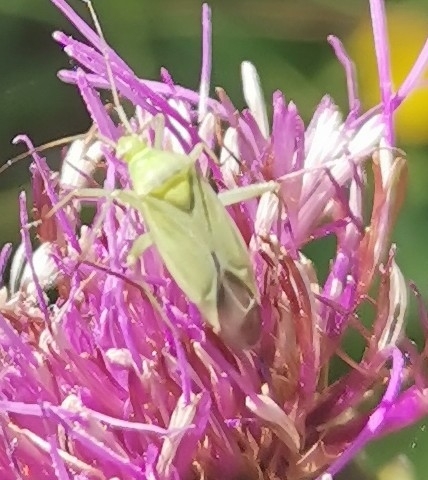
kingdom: Animalia
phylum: Arthropoda
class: Insecta
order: Hemiptera
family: Miridae
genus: Calocoris
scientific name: Calocoris affinis
